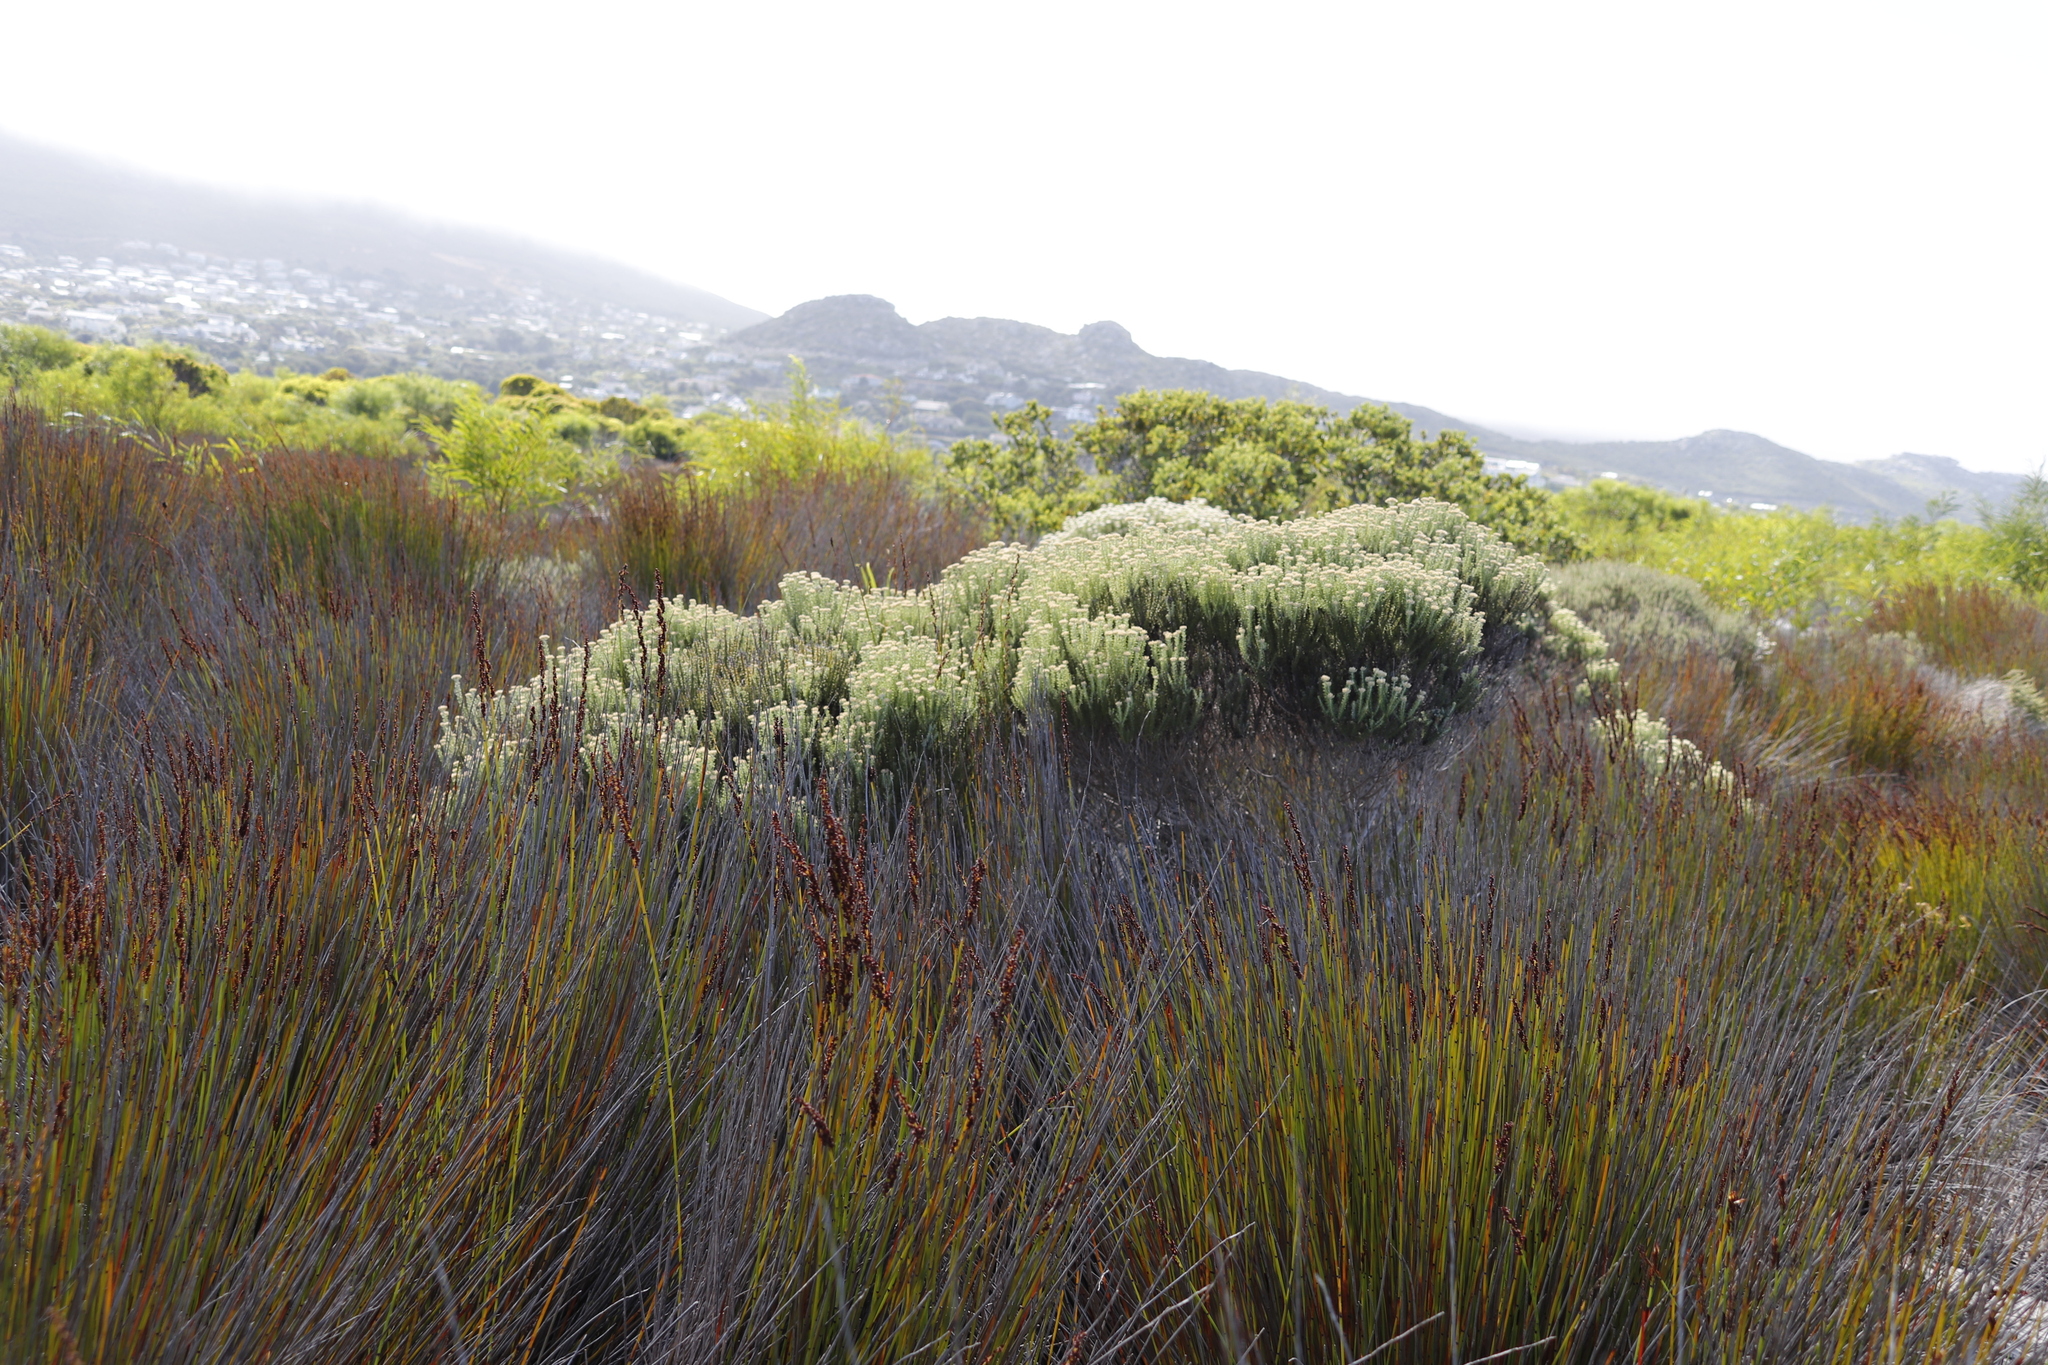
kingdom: Plantae
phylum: Tracheophyta
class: Magnoliopsida
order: Asterales
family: Asteraceae
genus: Metalasia
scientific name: Metalasia muricata
